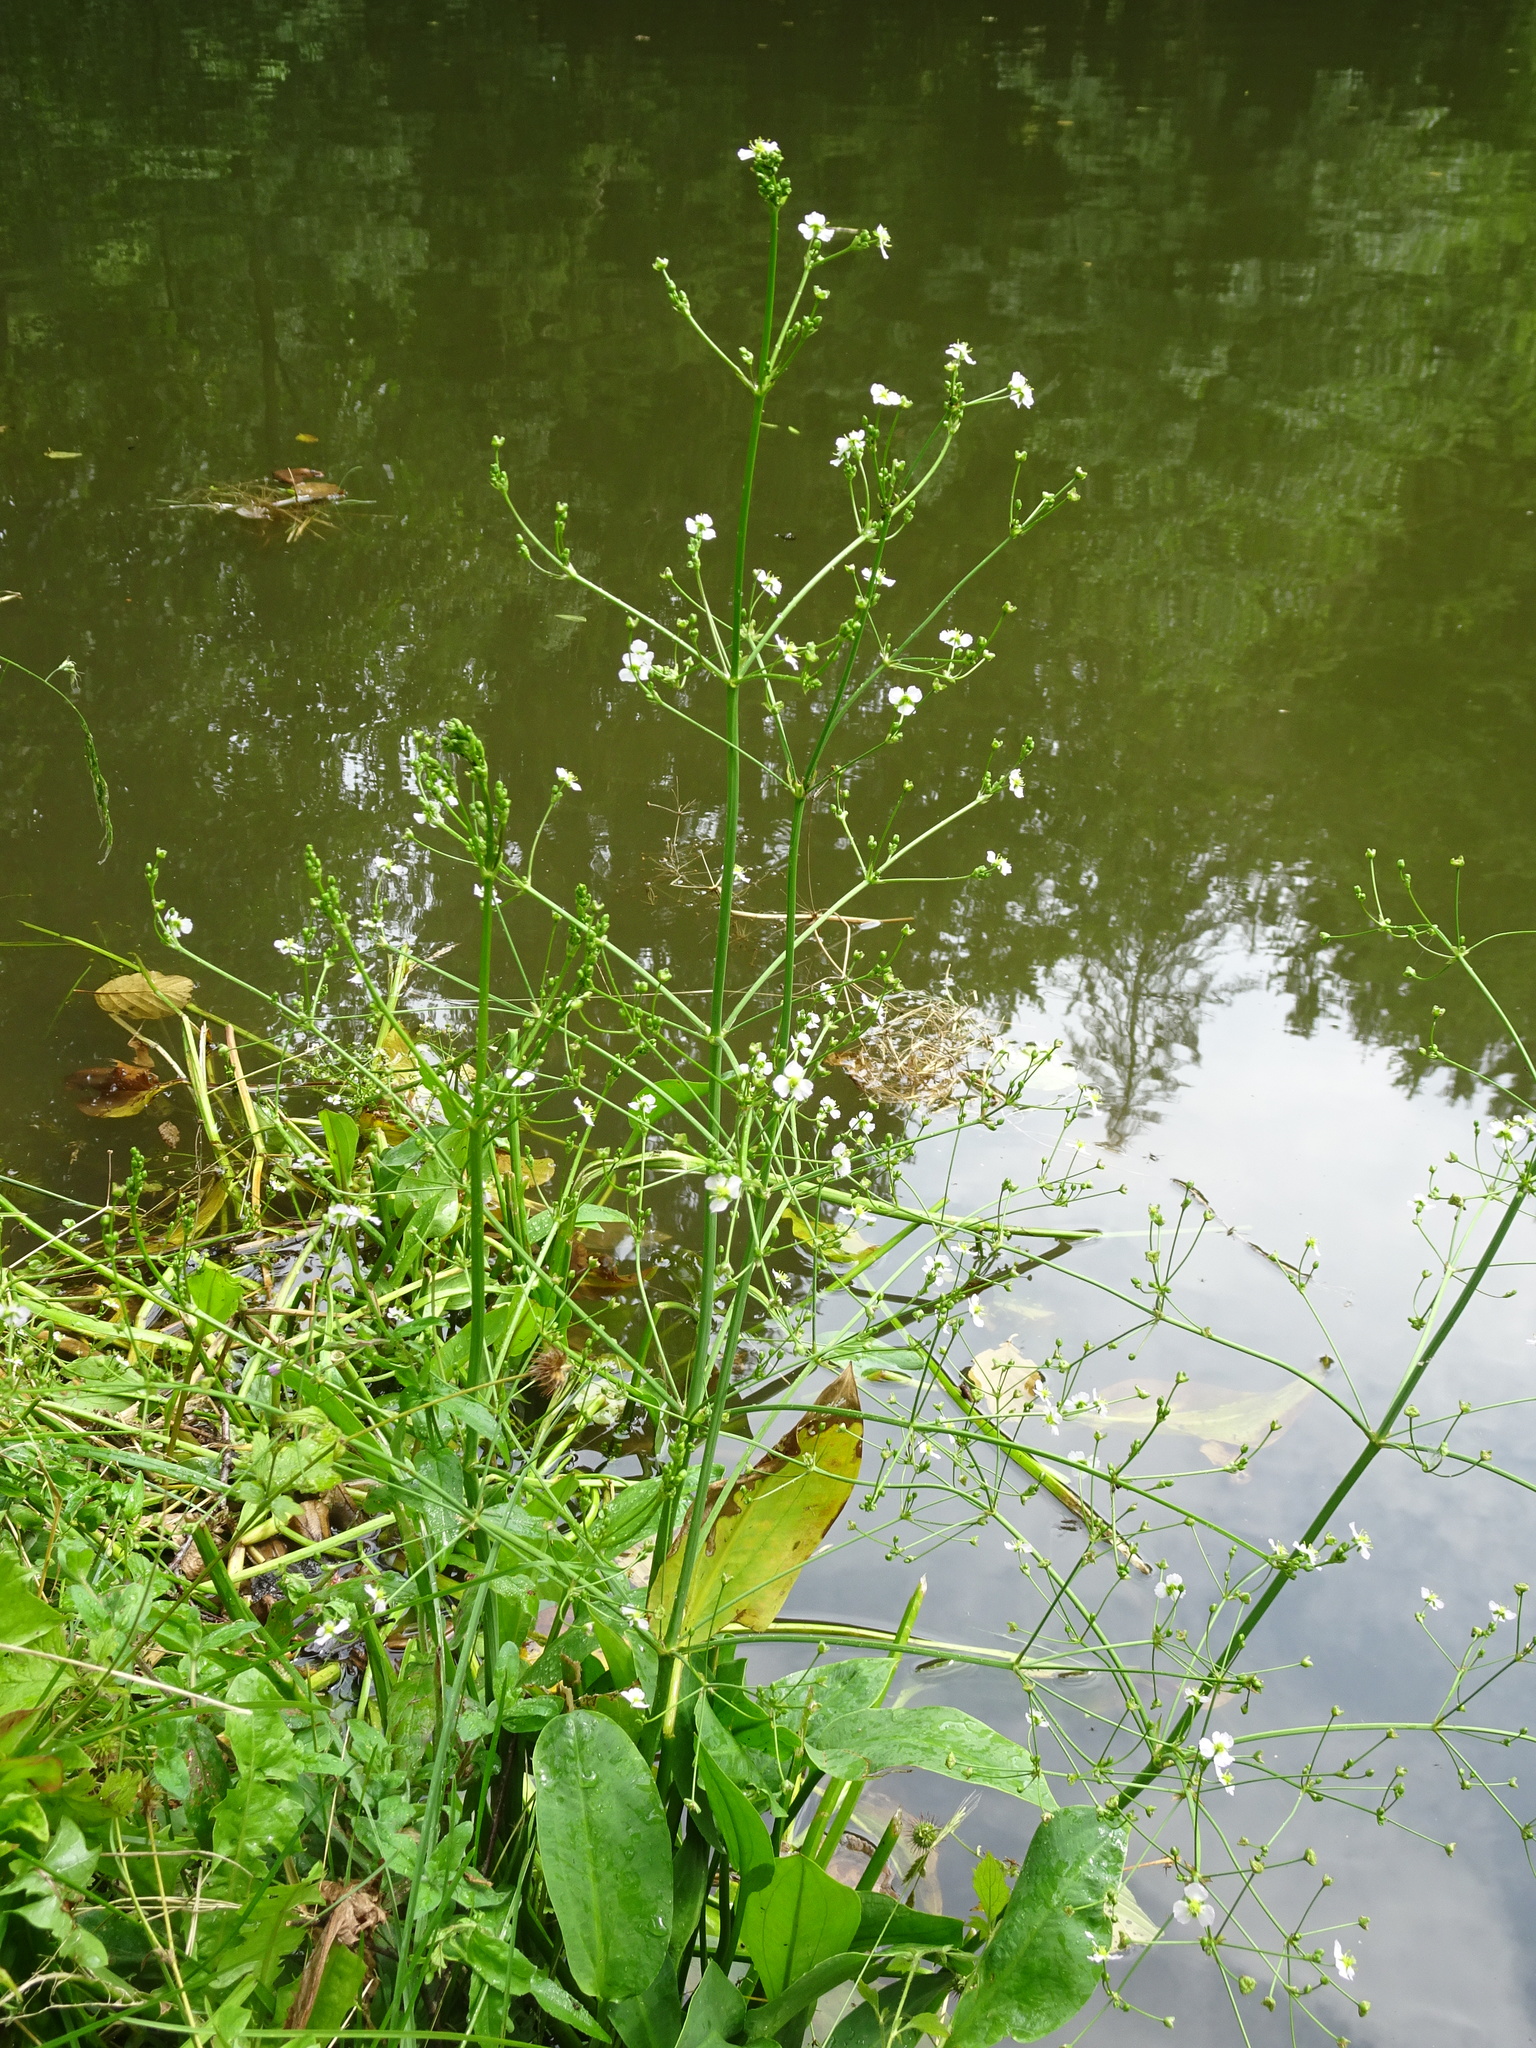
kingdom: Plantae
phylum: Tracheophyta
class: Liliopsida
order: Alismatales
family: Alismataceae
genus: Alisma
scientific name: Alisma plantago-aquatica
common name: Water-plantain
